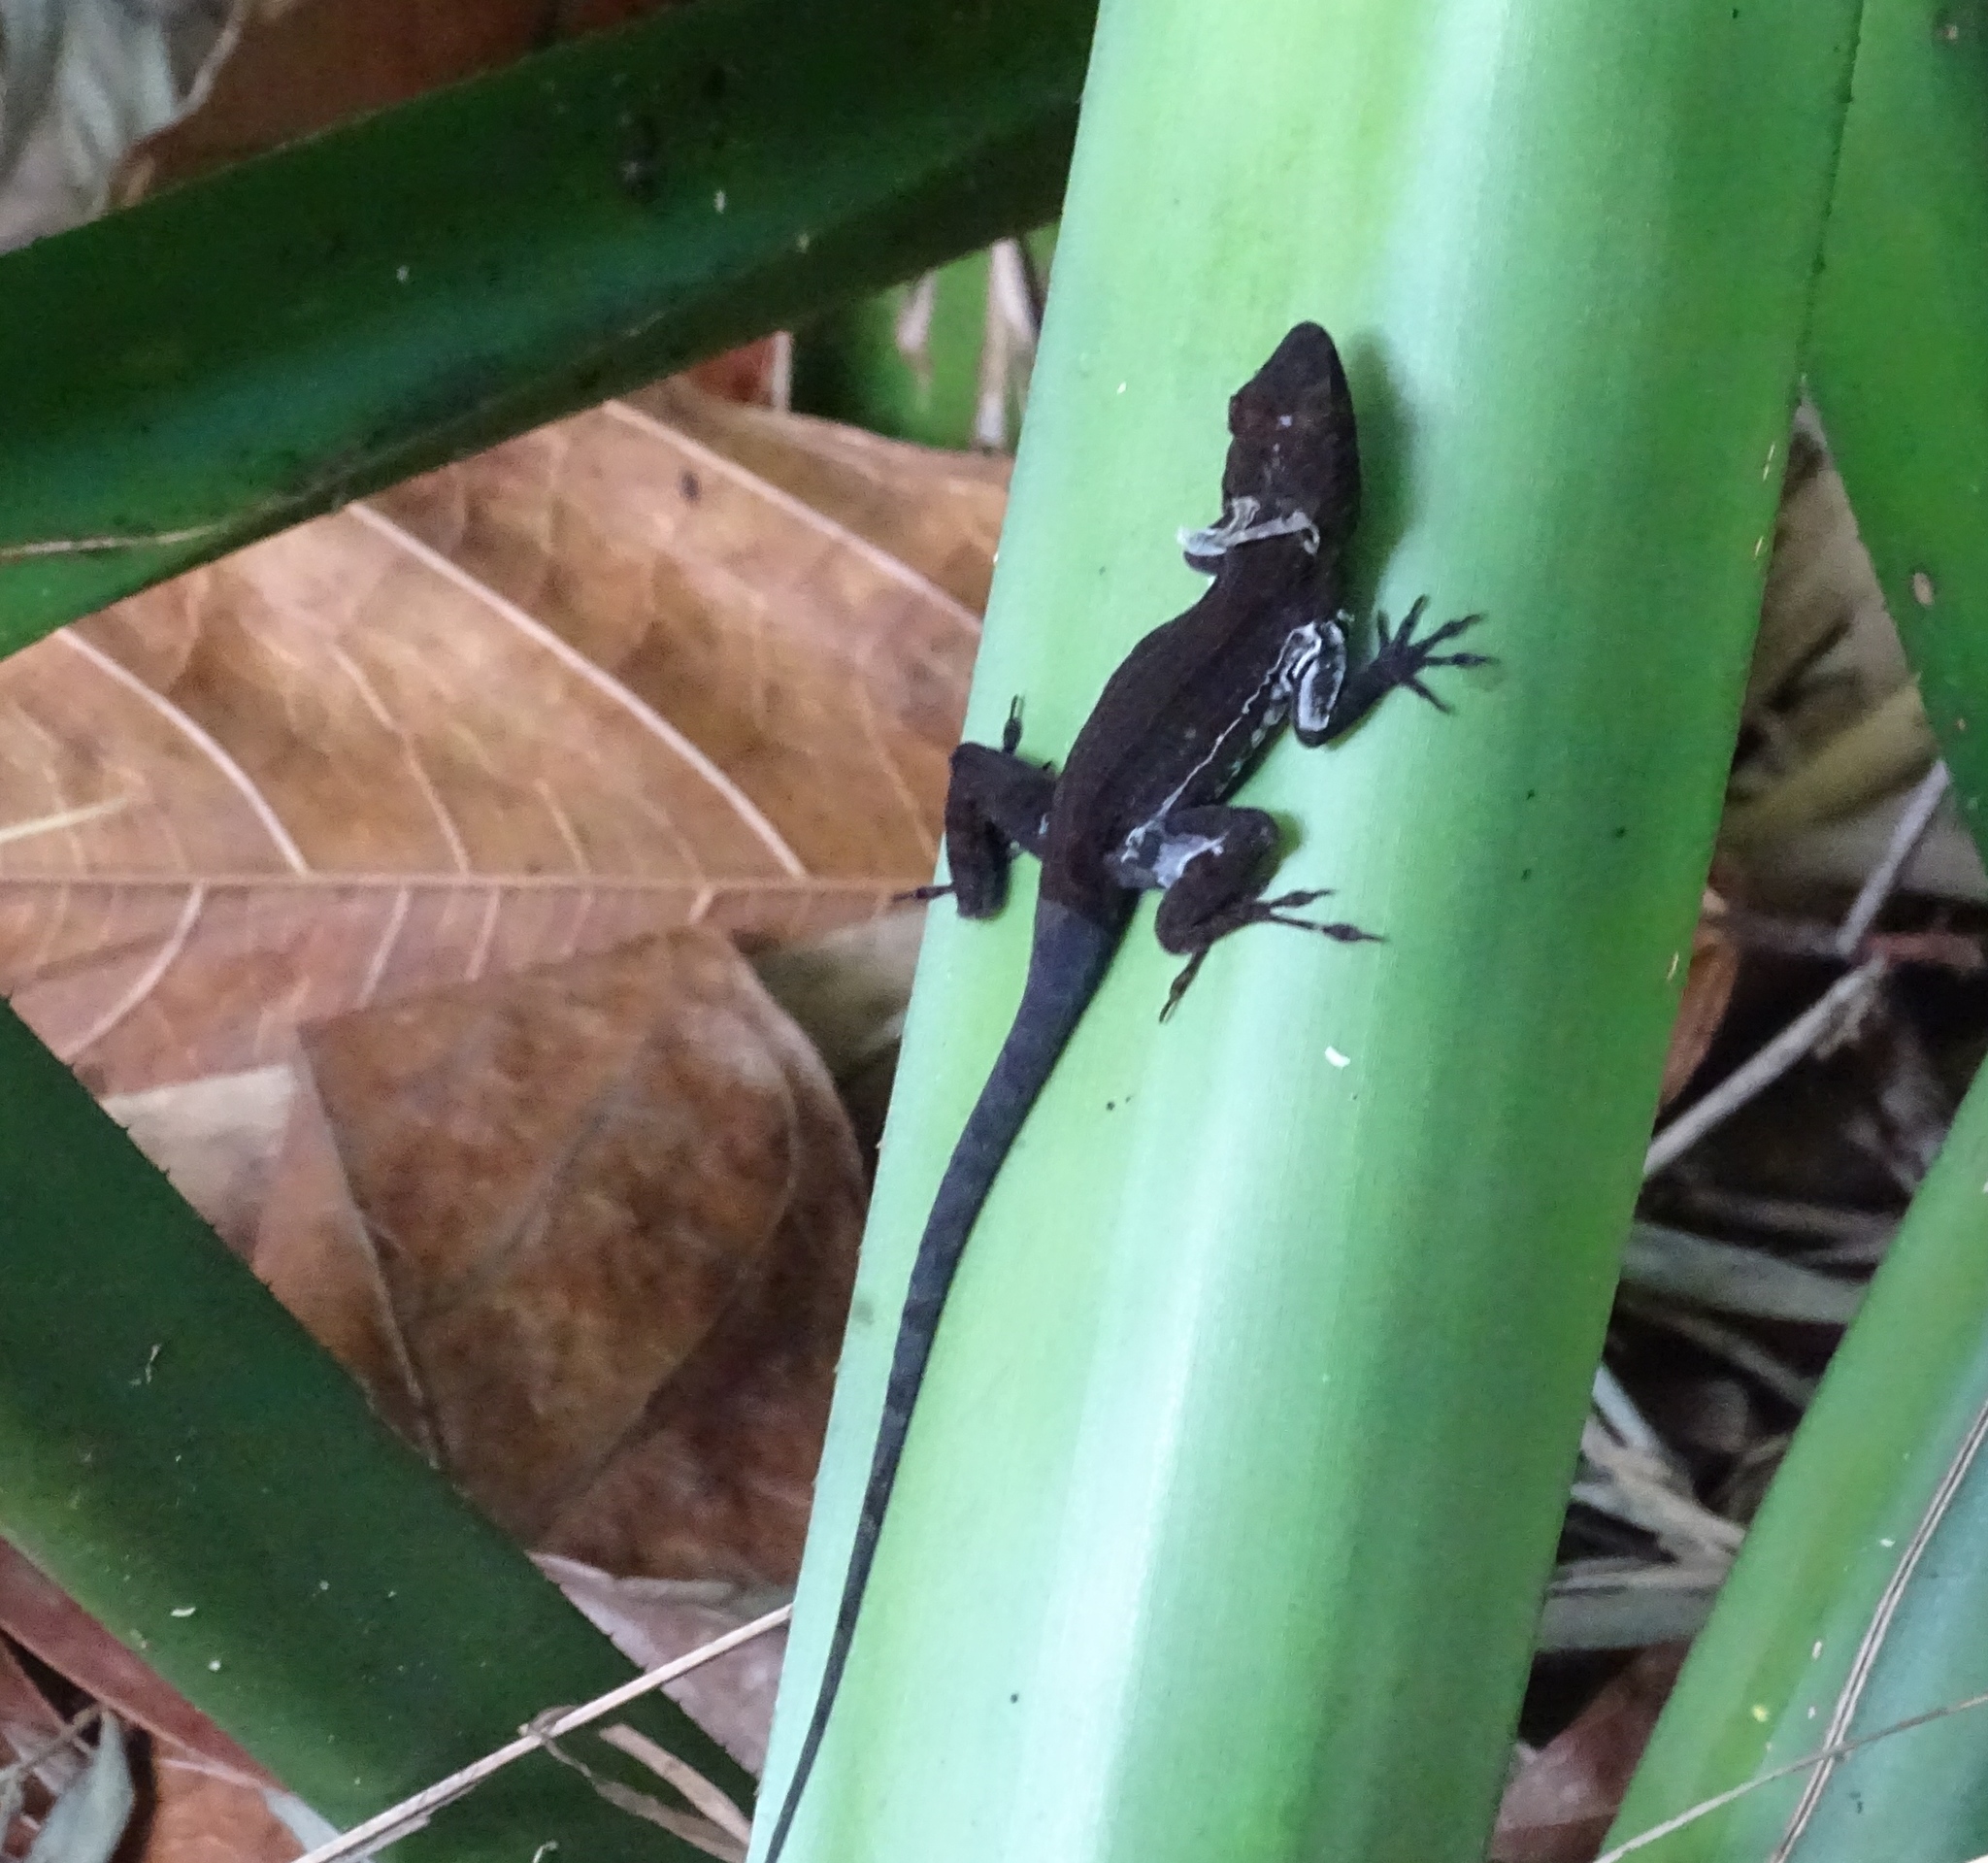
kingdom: Animalia
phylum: Chordata
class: Squamata
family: Dactyloidae
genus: Anolis
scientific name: Anolis cristatellus
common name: Crested anole
